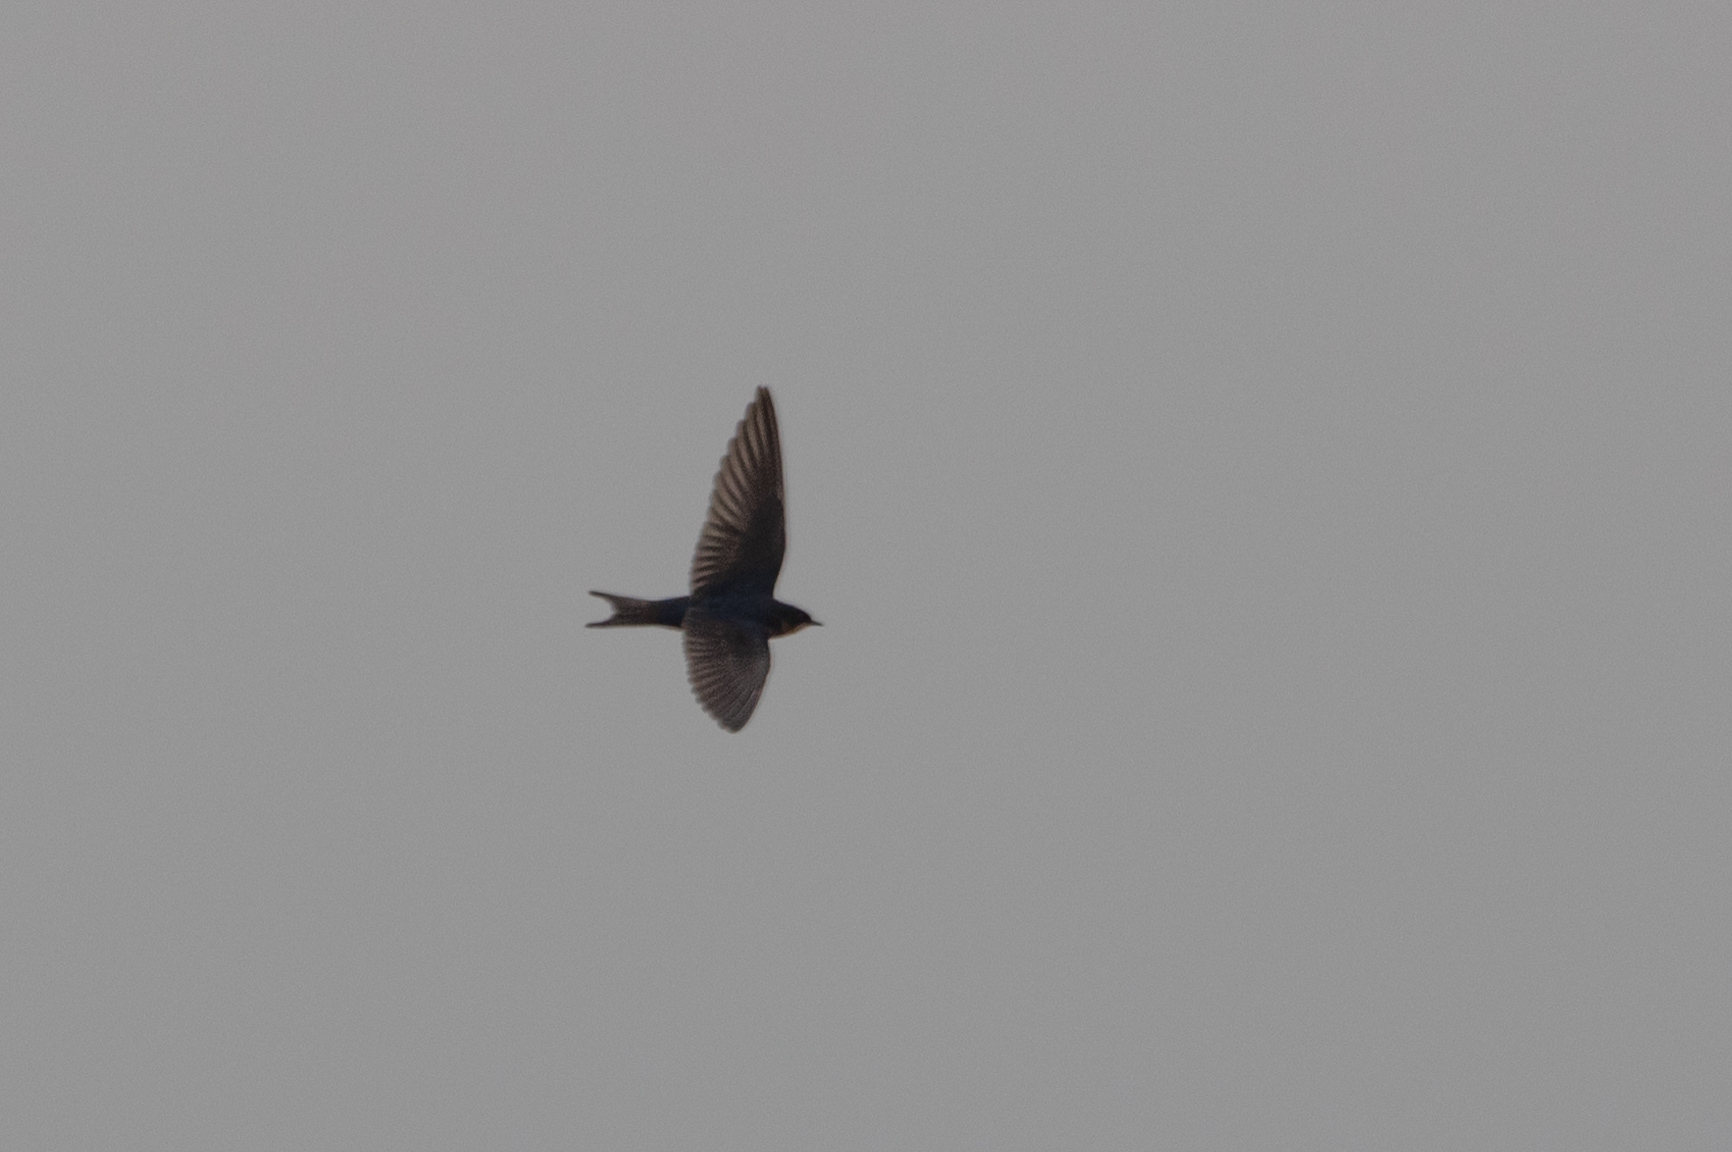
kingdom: Animalia
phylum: Chordata
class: Aves
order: Passeriformes
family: Hirundinidae
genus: Hirundo
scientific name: Hirundo rustica
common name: Barn swallow
